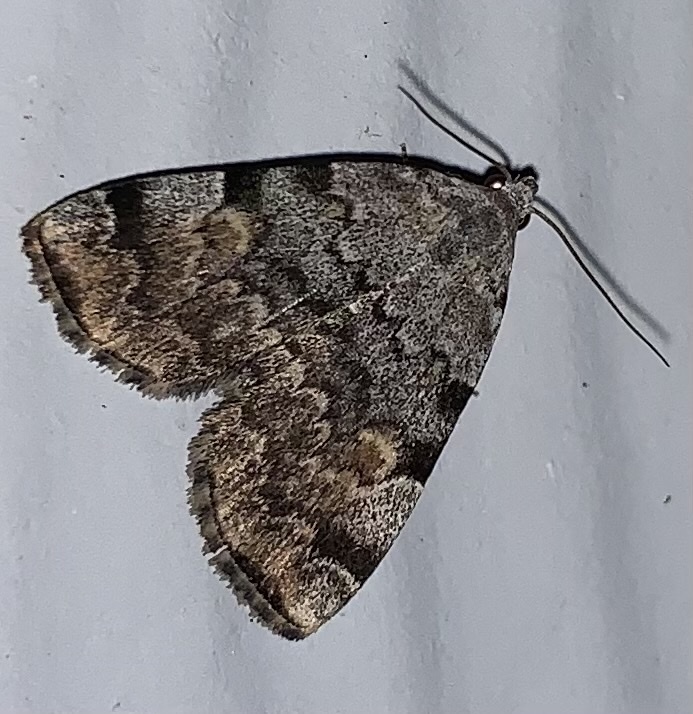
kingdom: Animalia
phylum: Arthropoda
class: Insecta
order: Lepidoptera
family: Erebidae
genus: Idia
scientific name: Idia americalis
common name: American idia moth
